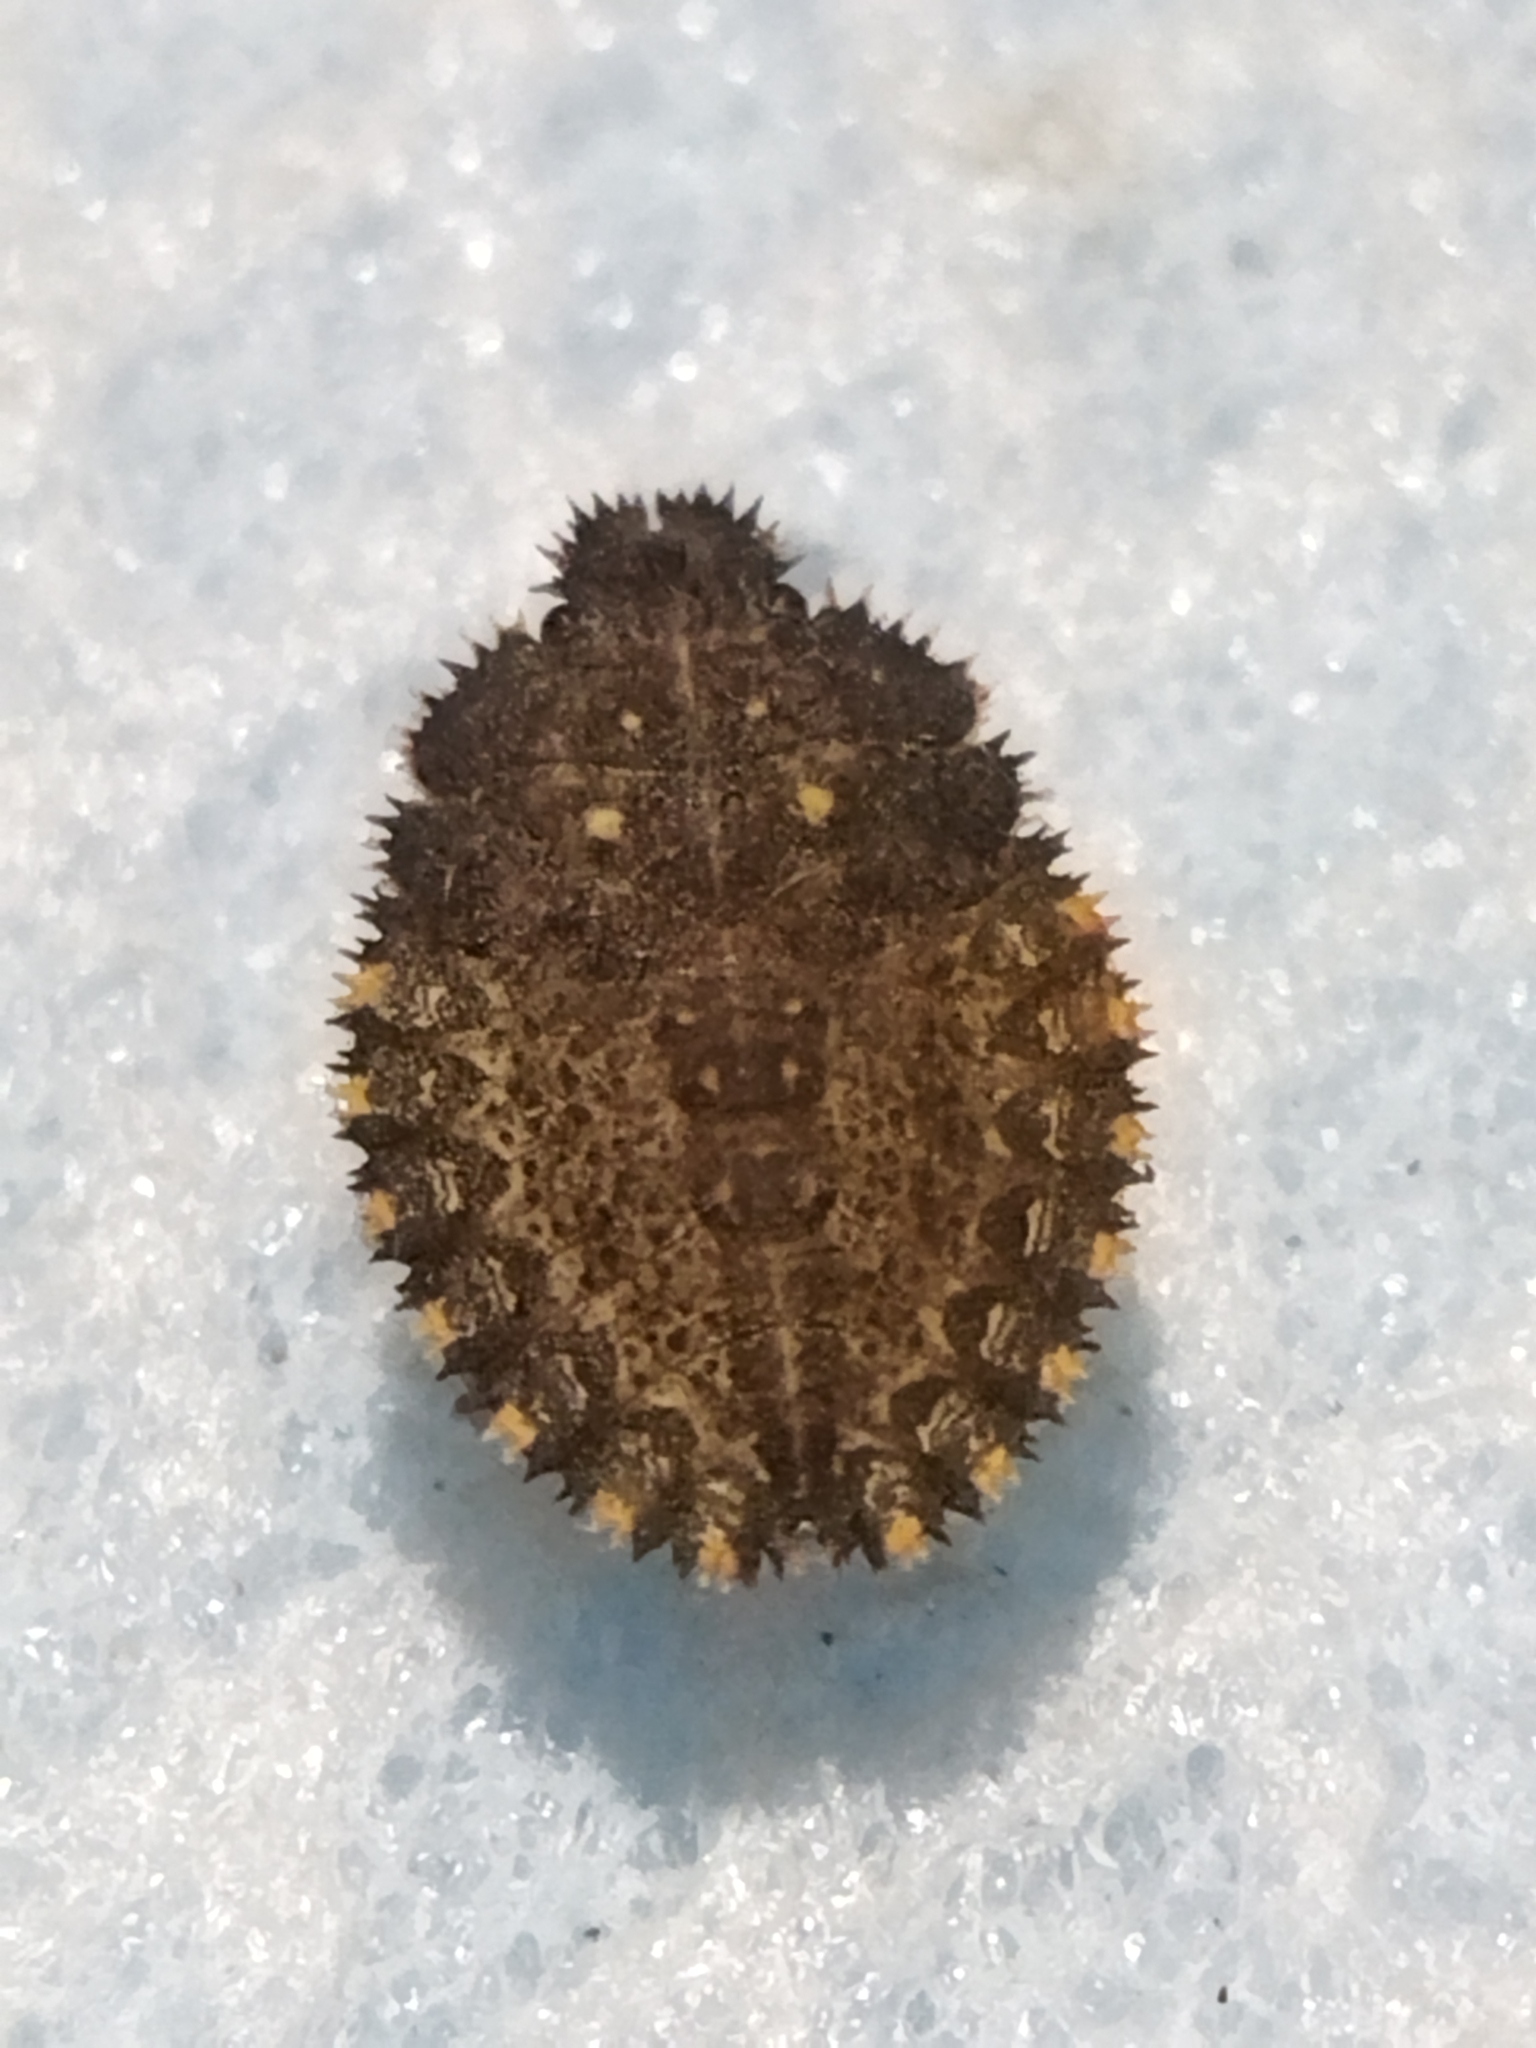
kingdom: Animalia
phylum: Arthropoda
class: Insecta
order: Hemiptera
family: Pentatomidae
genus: Mustha
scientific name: Mustha spinosula
